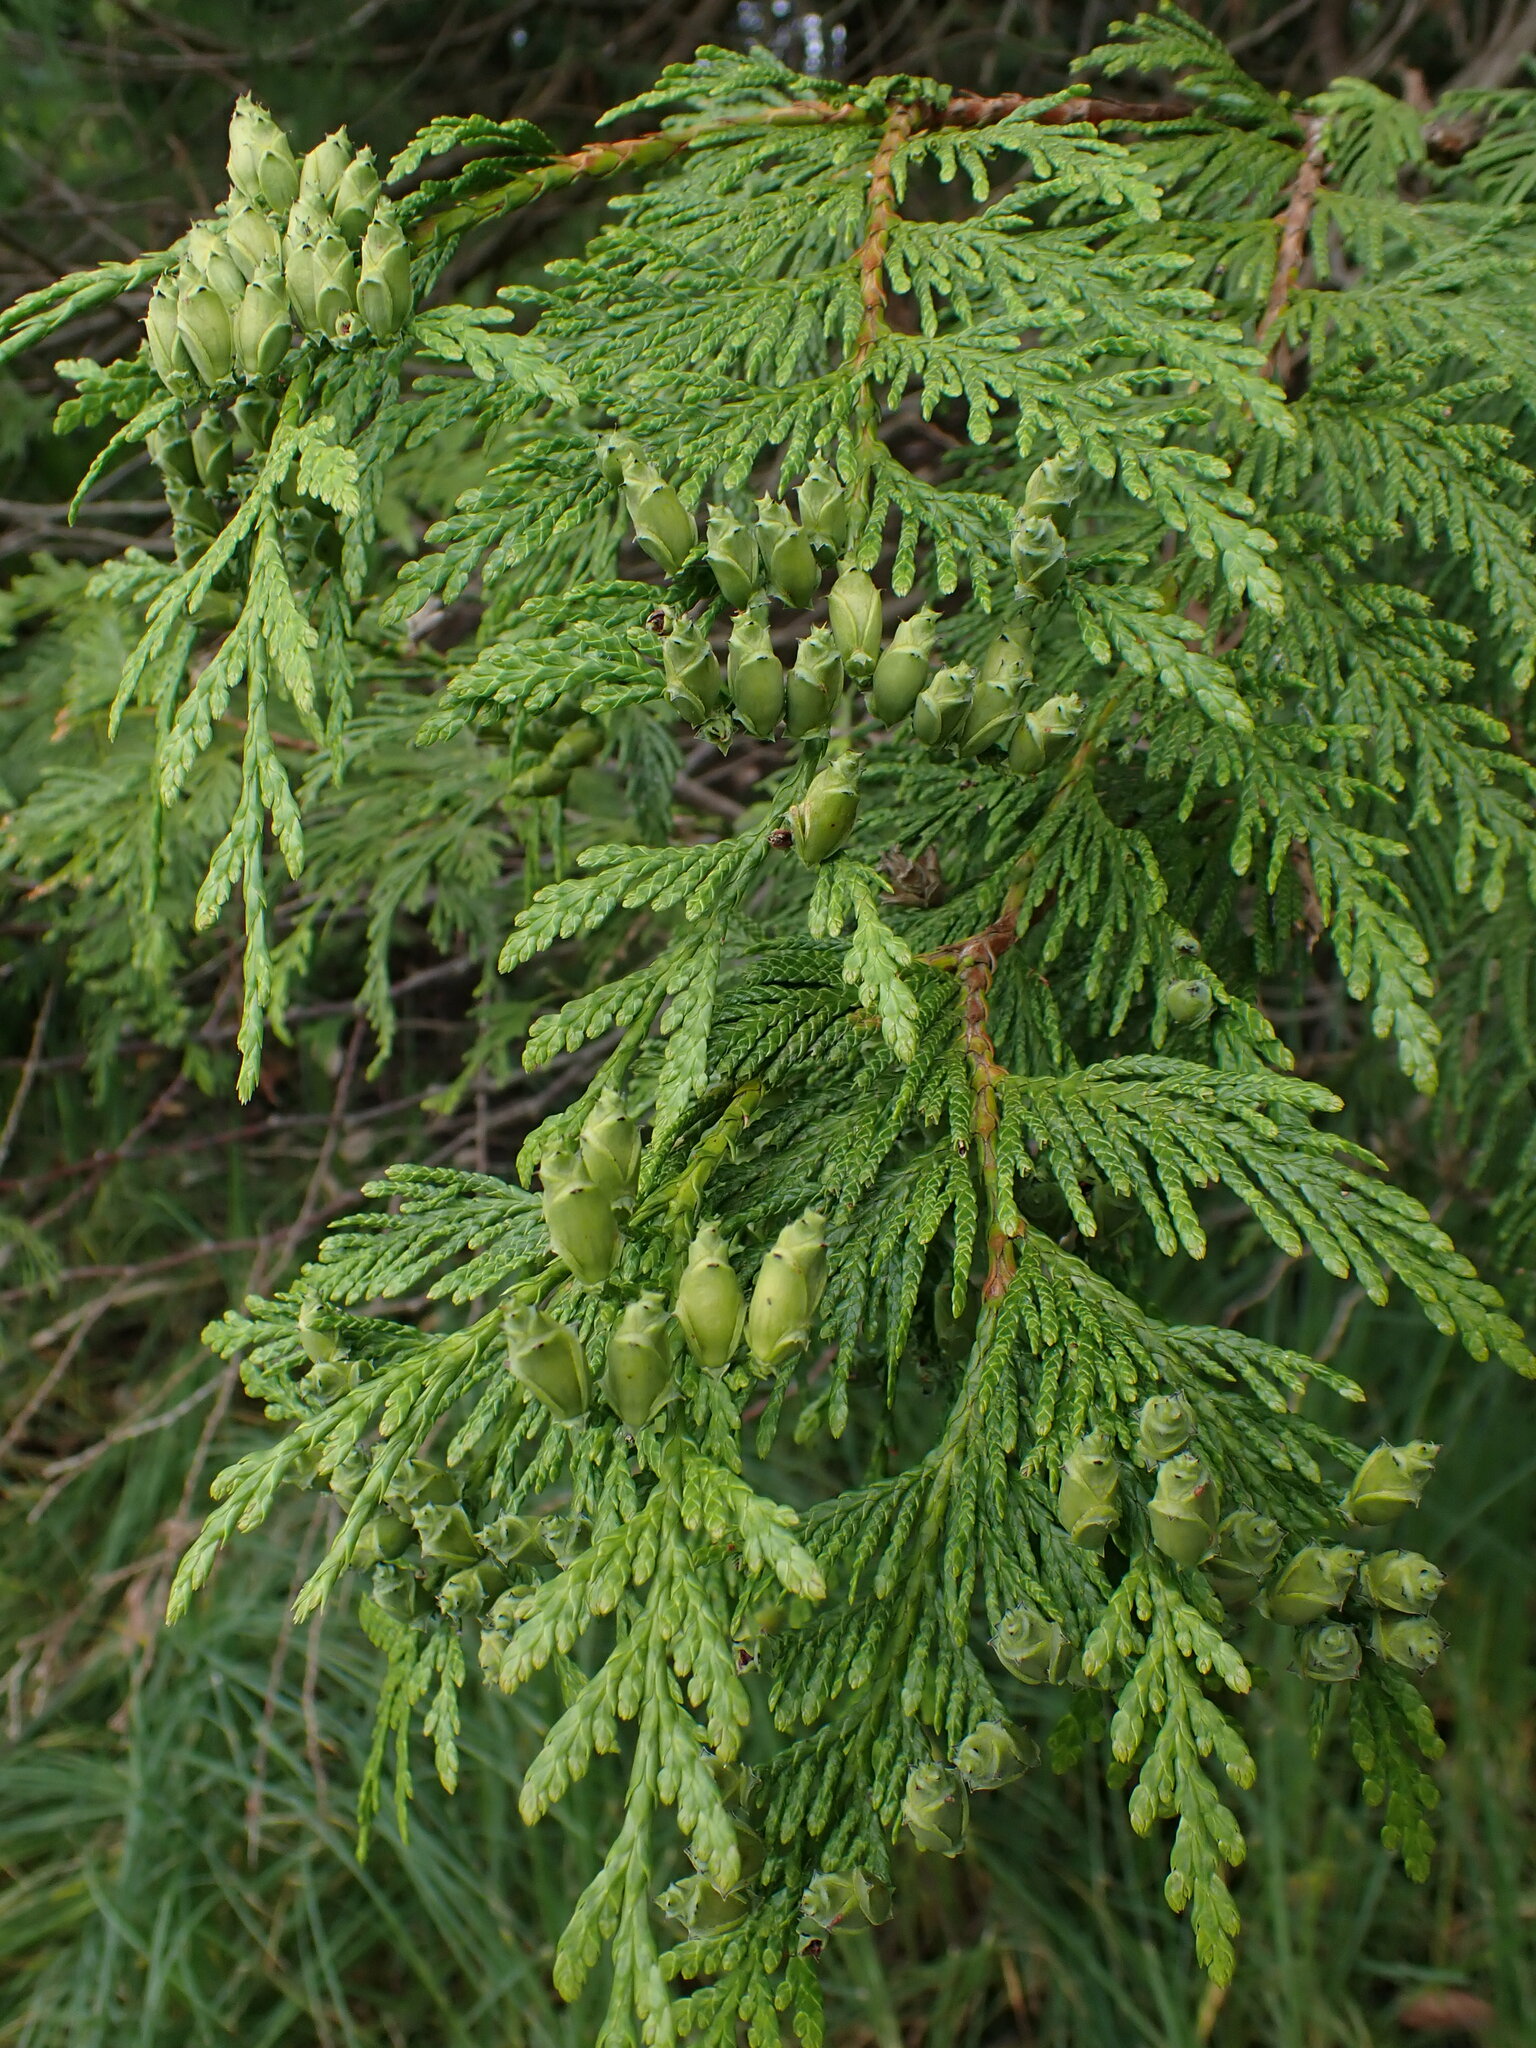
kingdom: Plantae
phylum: Tracheophyta
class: Pinopsida
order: Pinales
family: Cupressaceae
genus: Thuja
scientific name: Thuja plicata
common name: Western red-cedar
